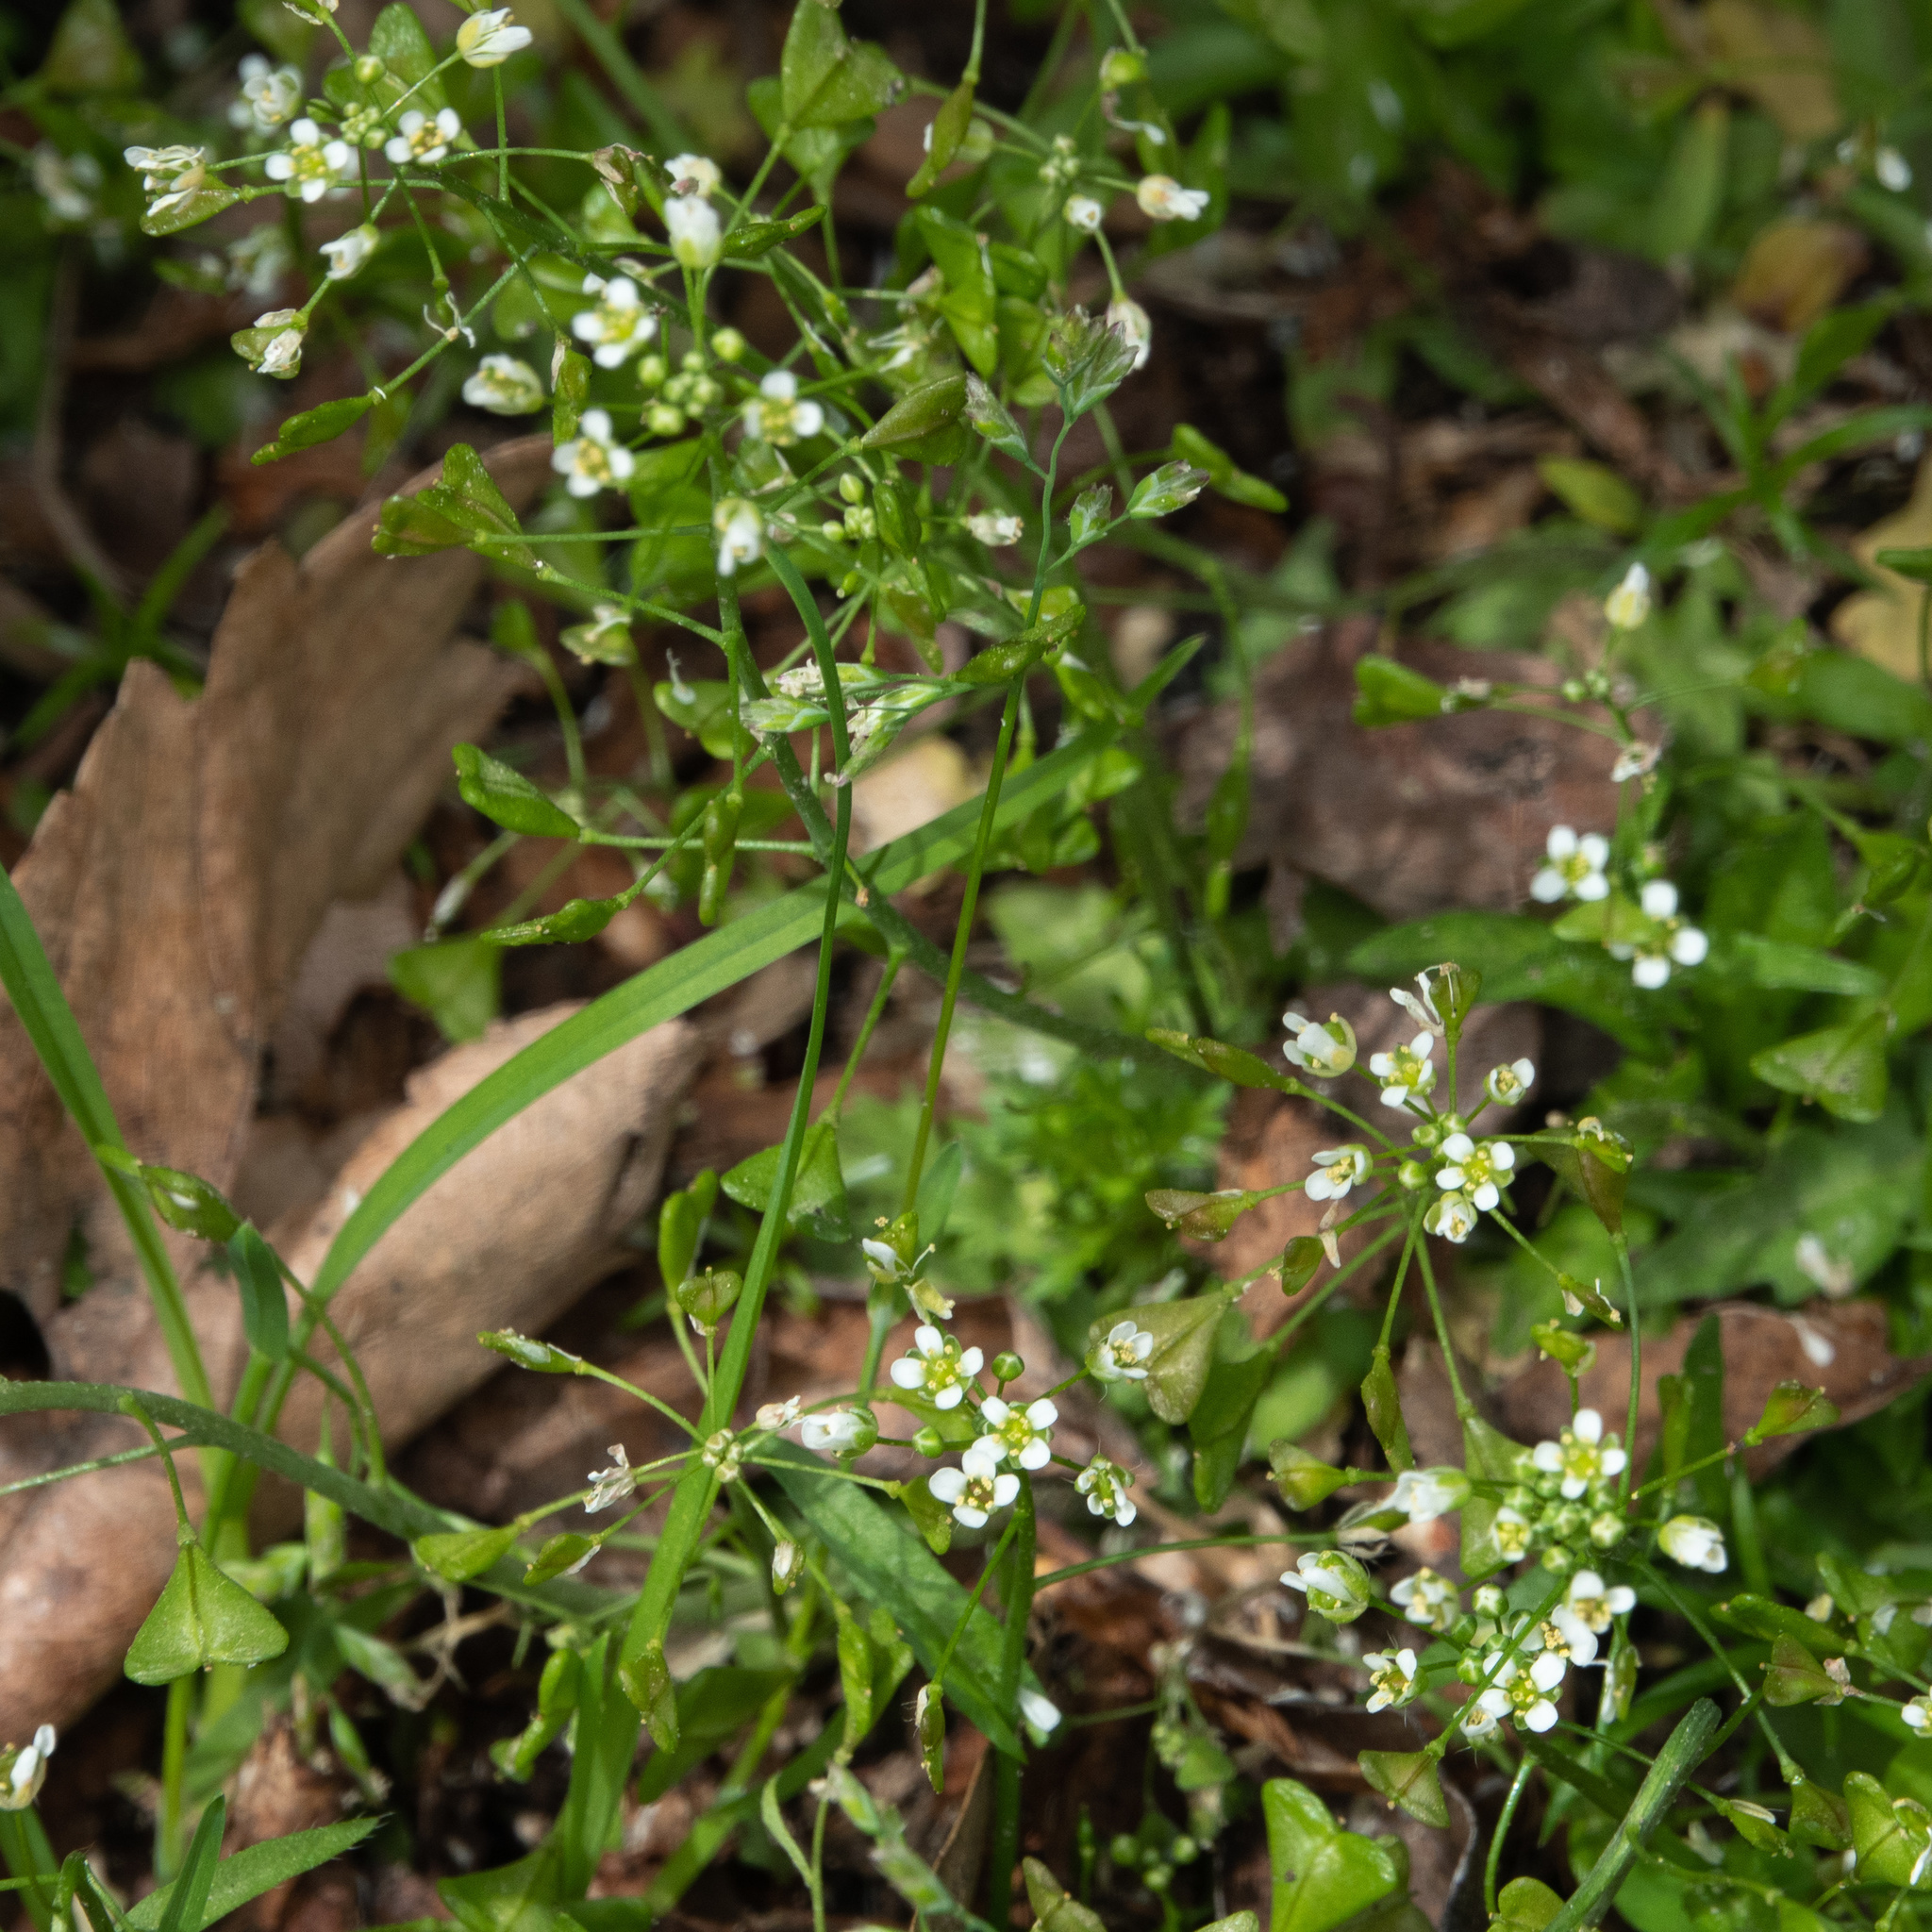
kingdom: Plantae
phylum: Tracheophyta
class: Magnoliopsida
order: Brassicales
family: Brassicaceae
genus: Capsella
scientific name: Capsella bursa-pastoris
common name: Shepherd's purse
